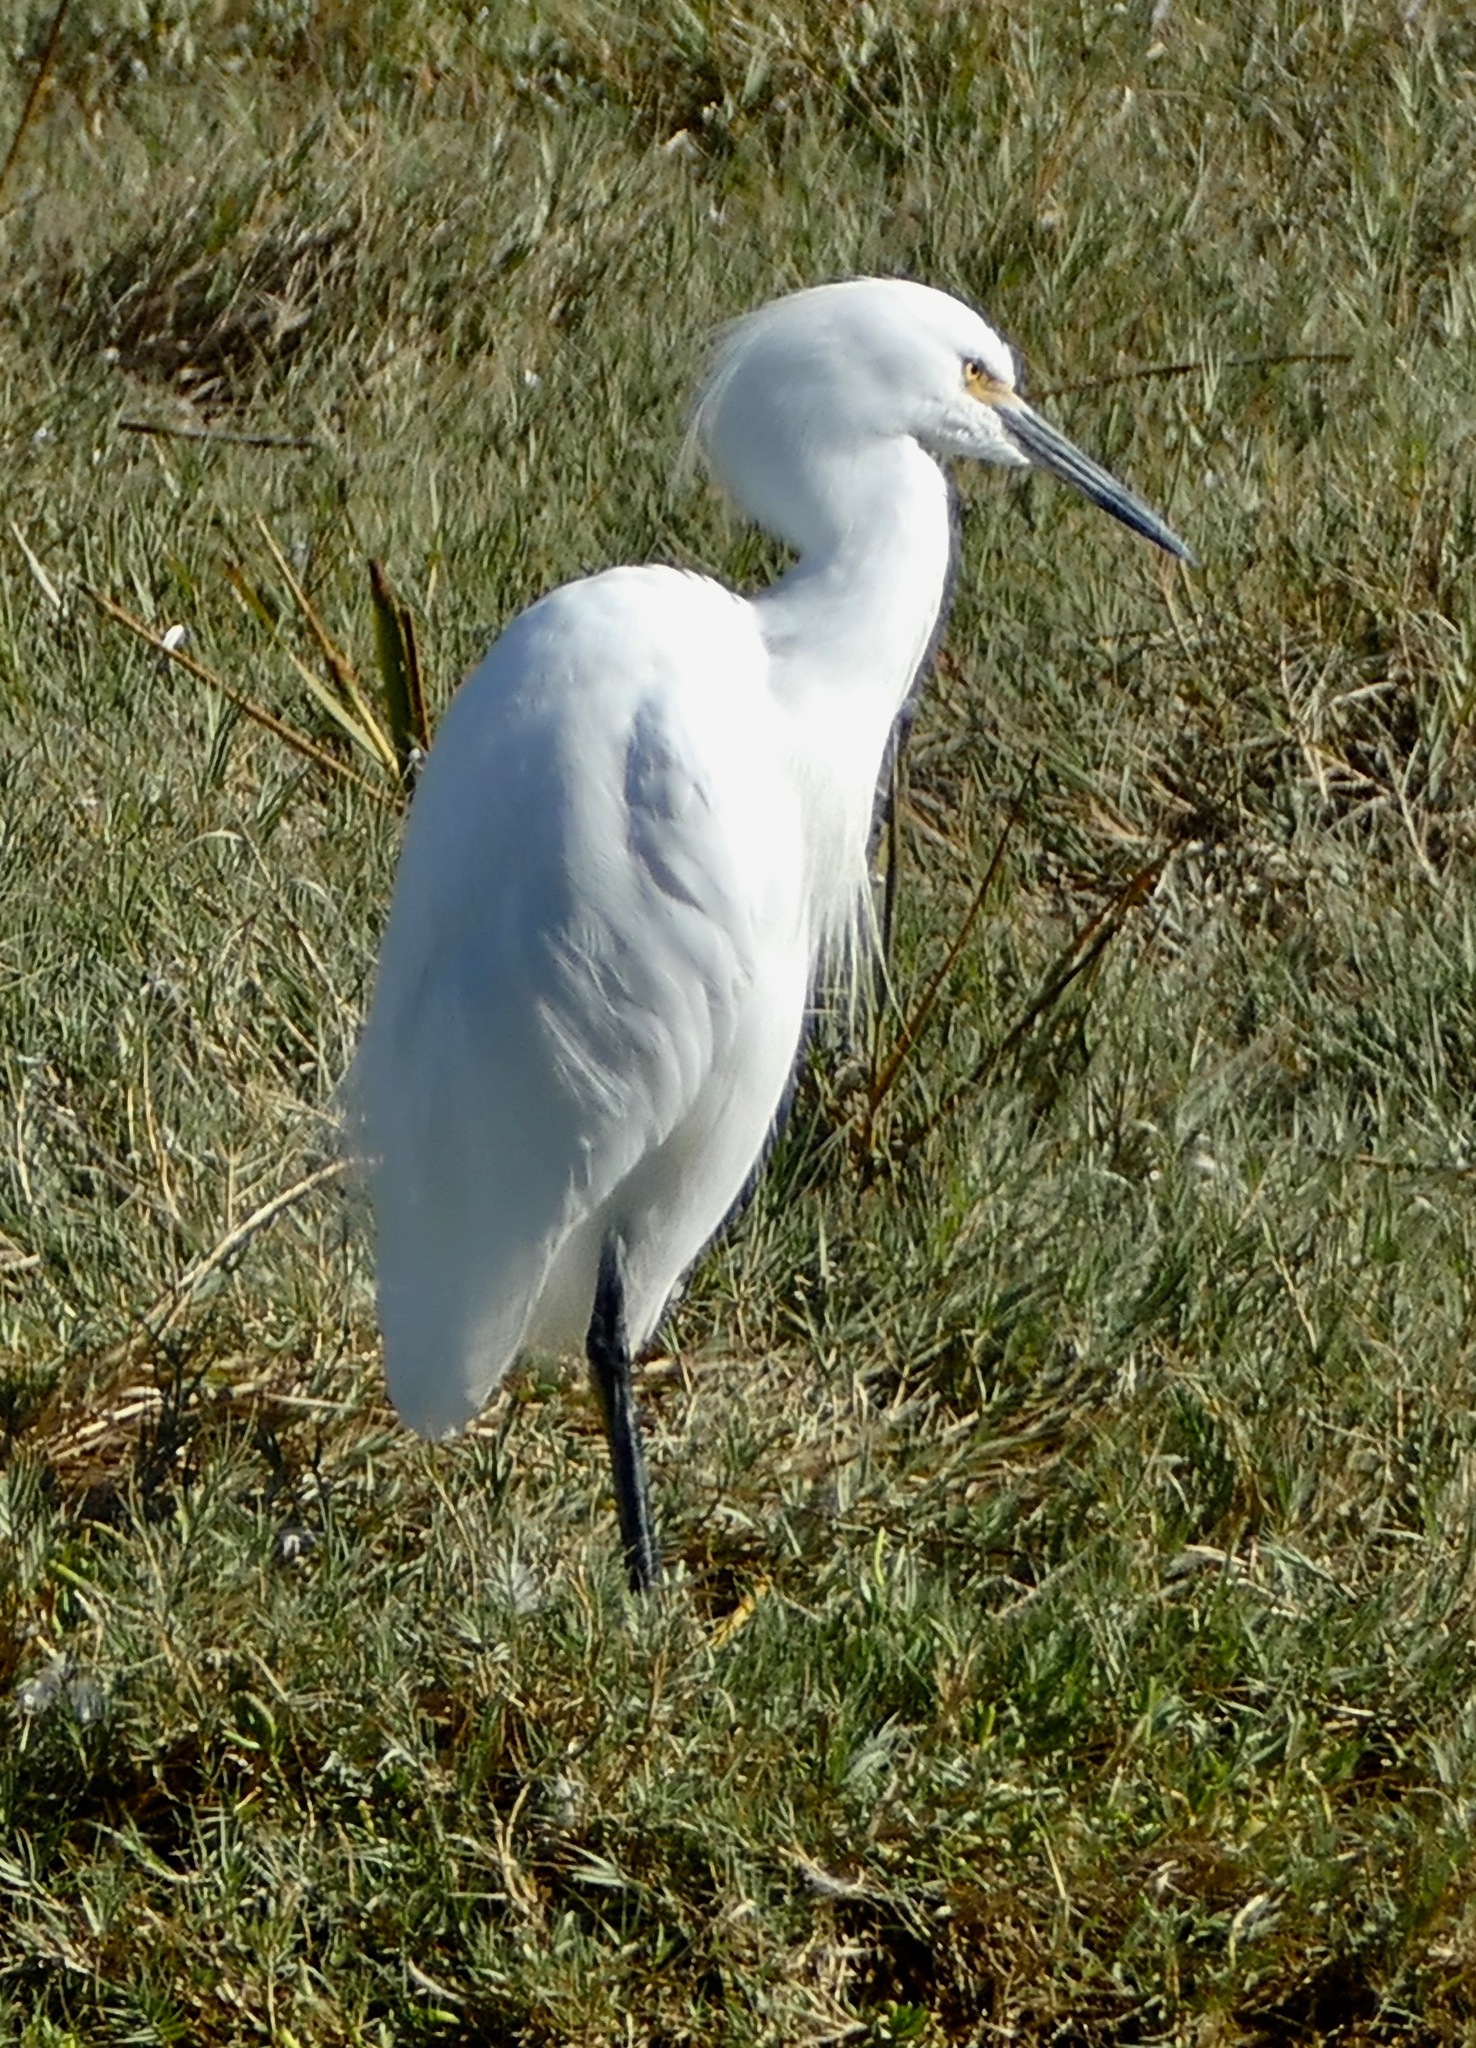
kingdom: Animalia
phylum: Chordata
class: Aves
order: Pelecaniformes
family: Ardeidae
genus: Egretta
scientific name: Egretta thula
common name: Snowy egret
